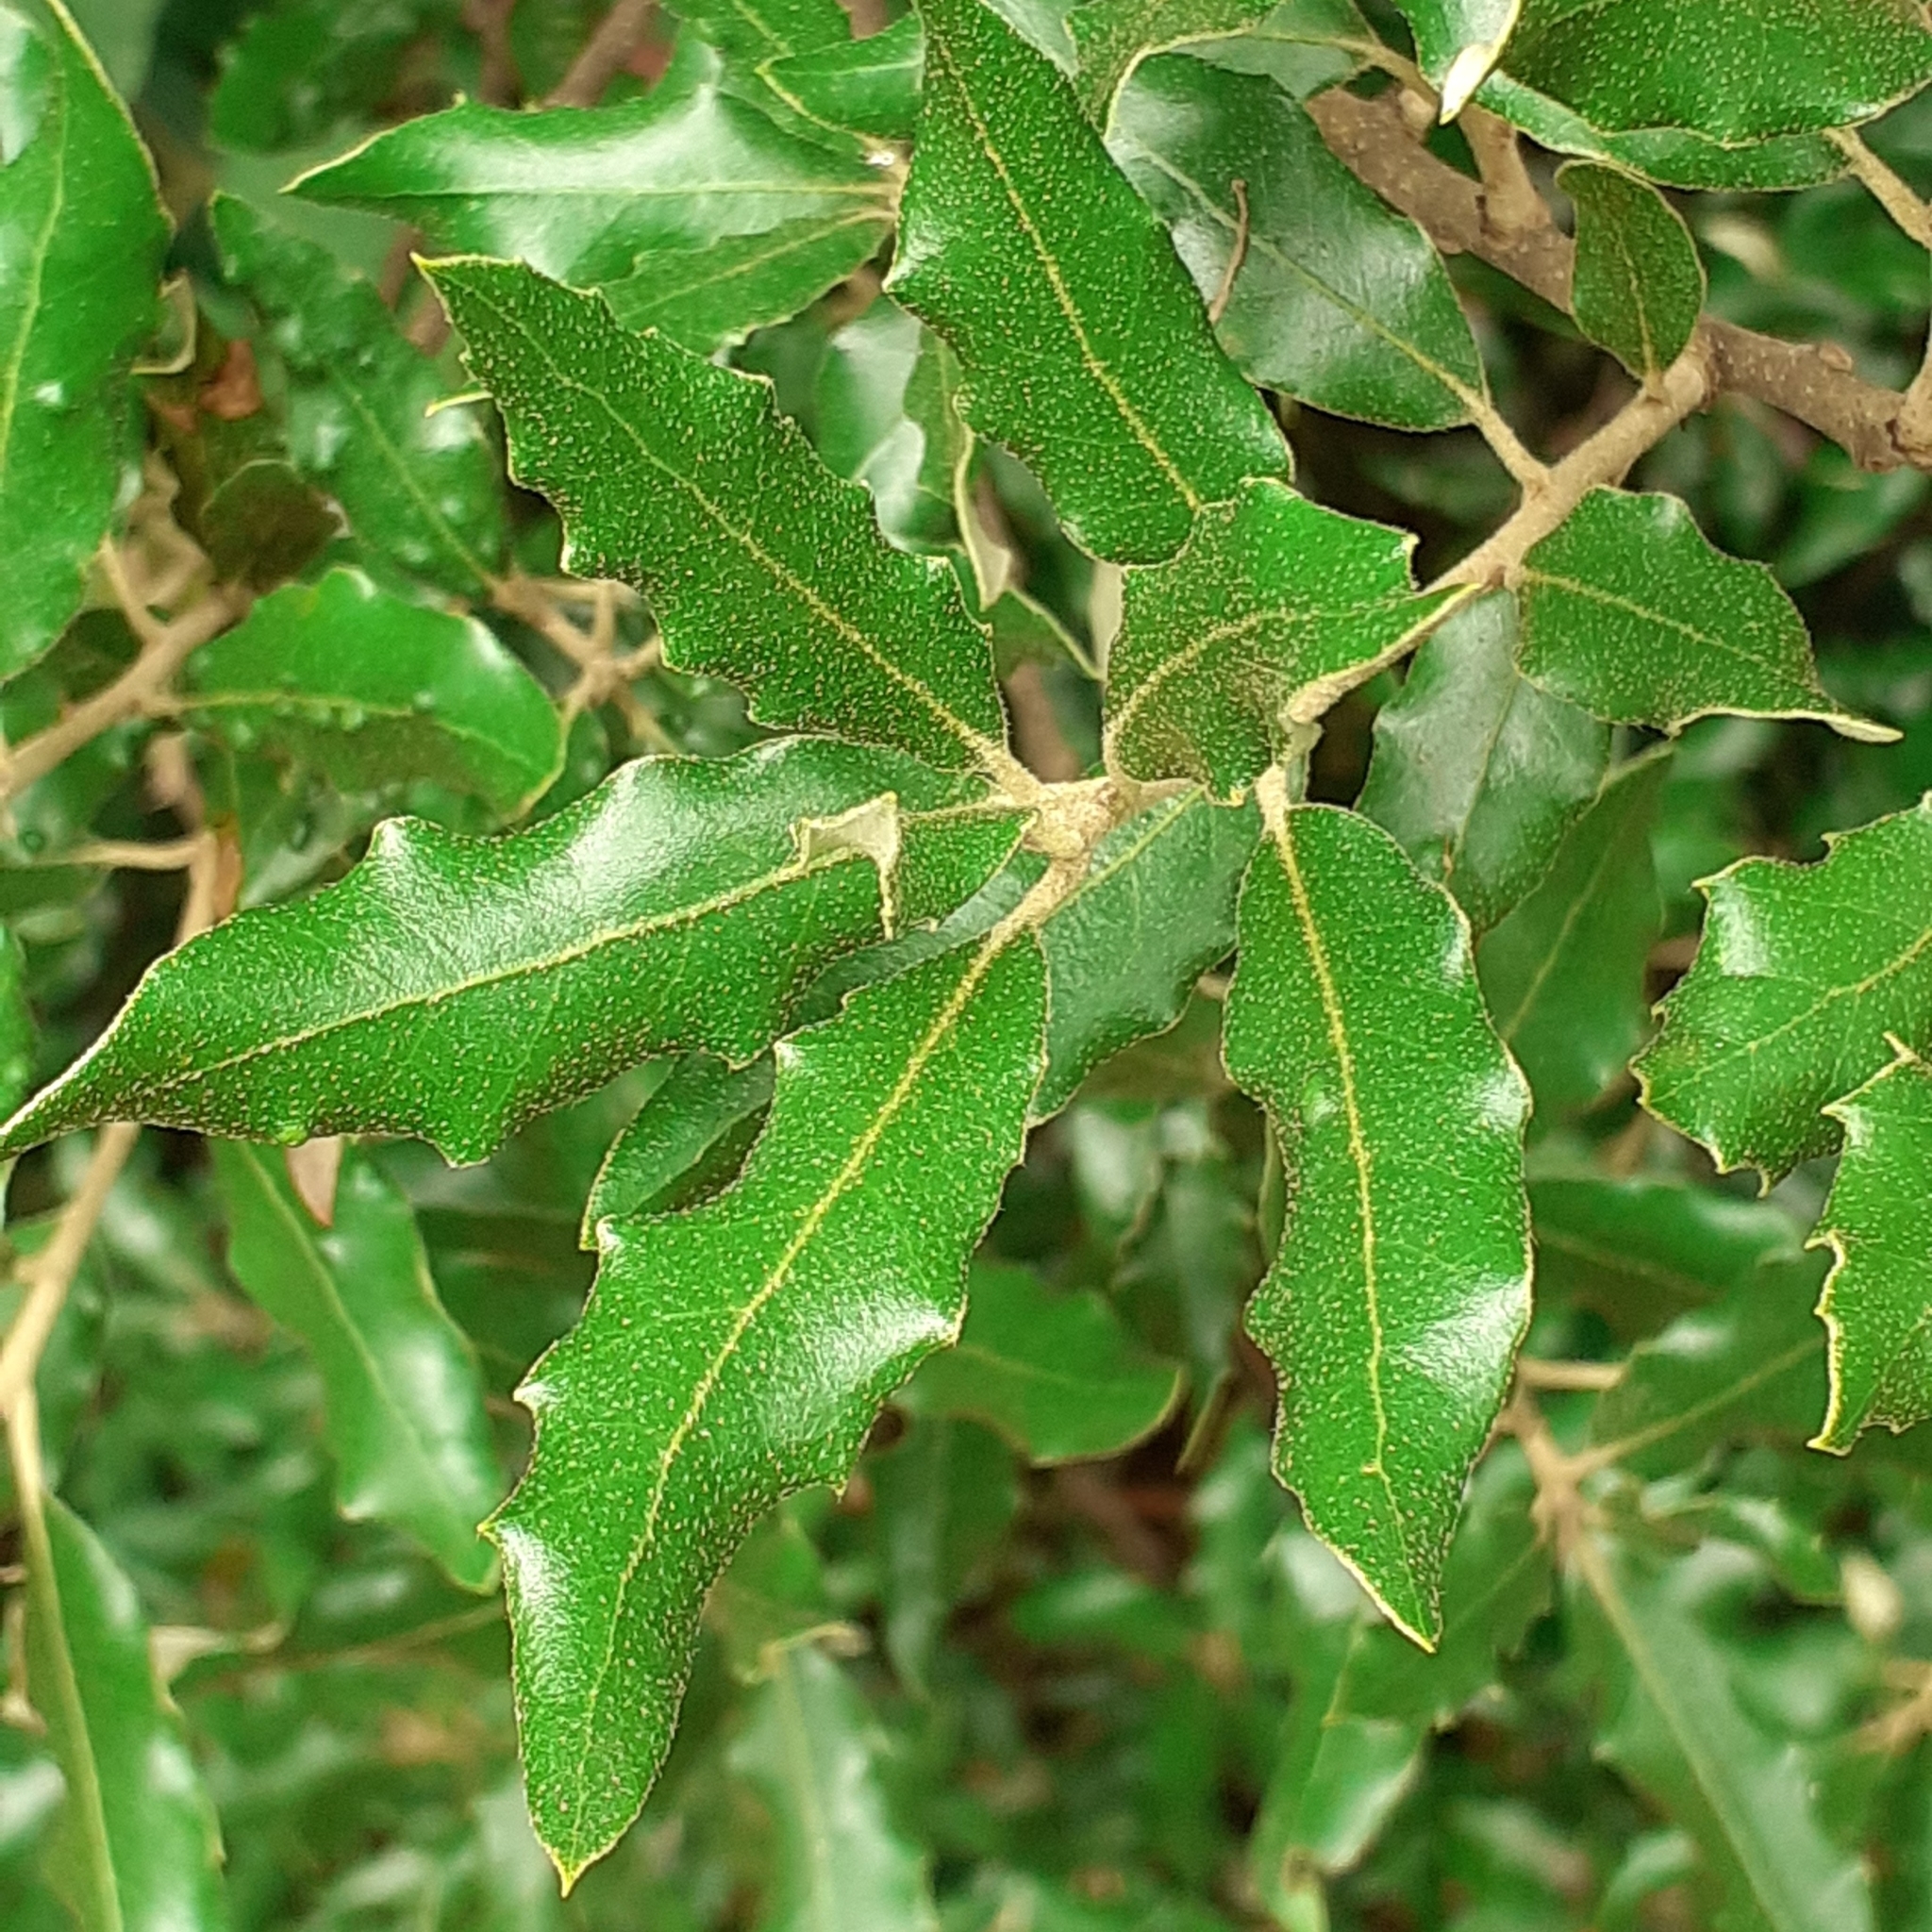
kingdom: Plantae
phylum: Tracheophyta
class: Magnoliopsida
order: Fagales
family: Fagaceae
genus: Quercus
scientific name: Quercus ilex
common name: Evergreen oak
